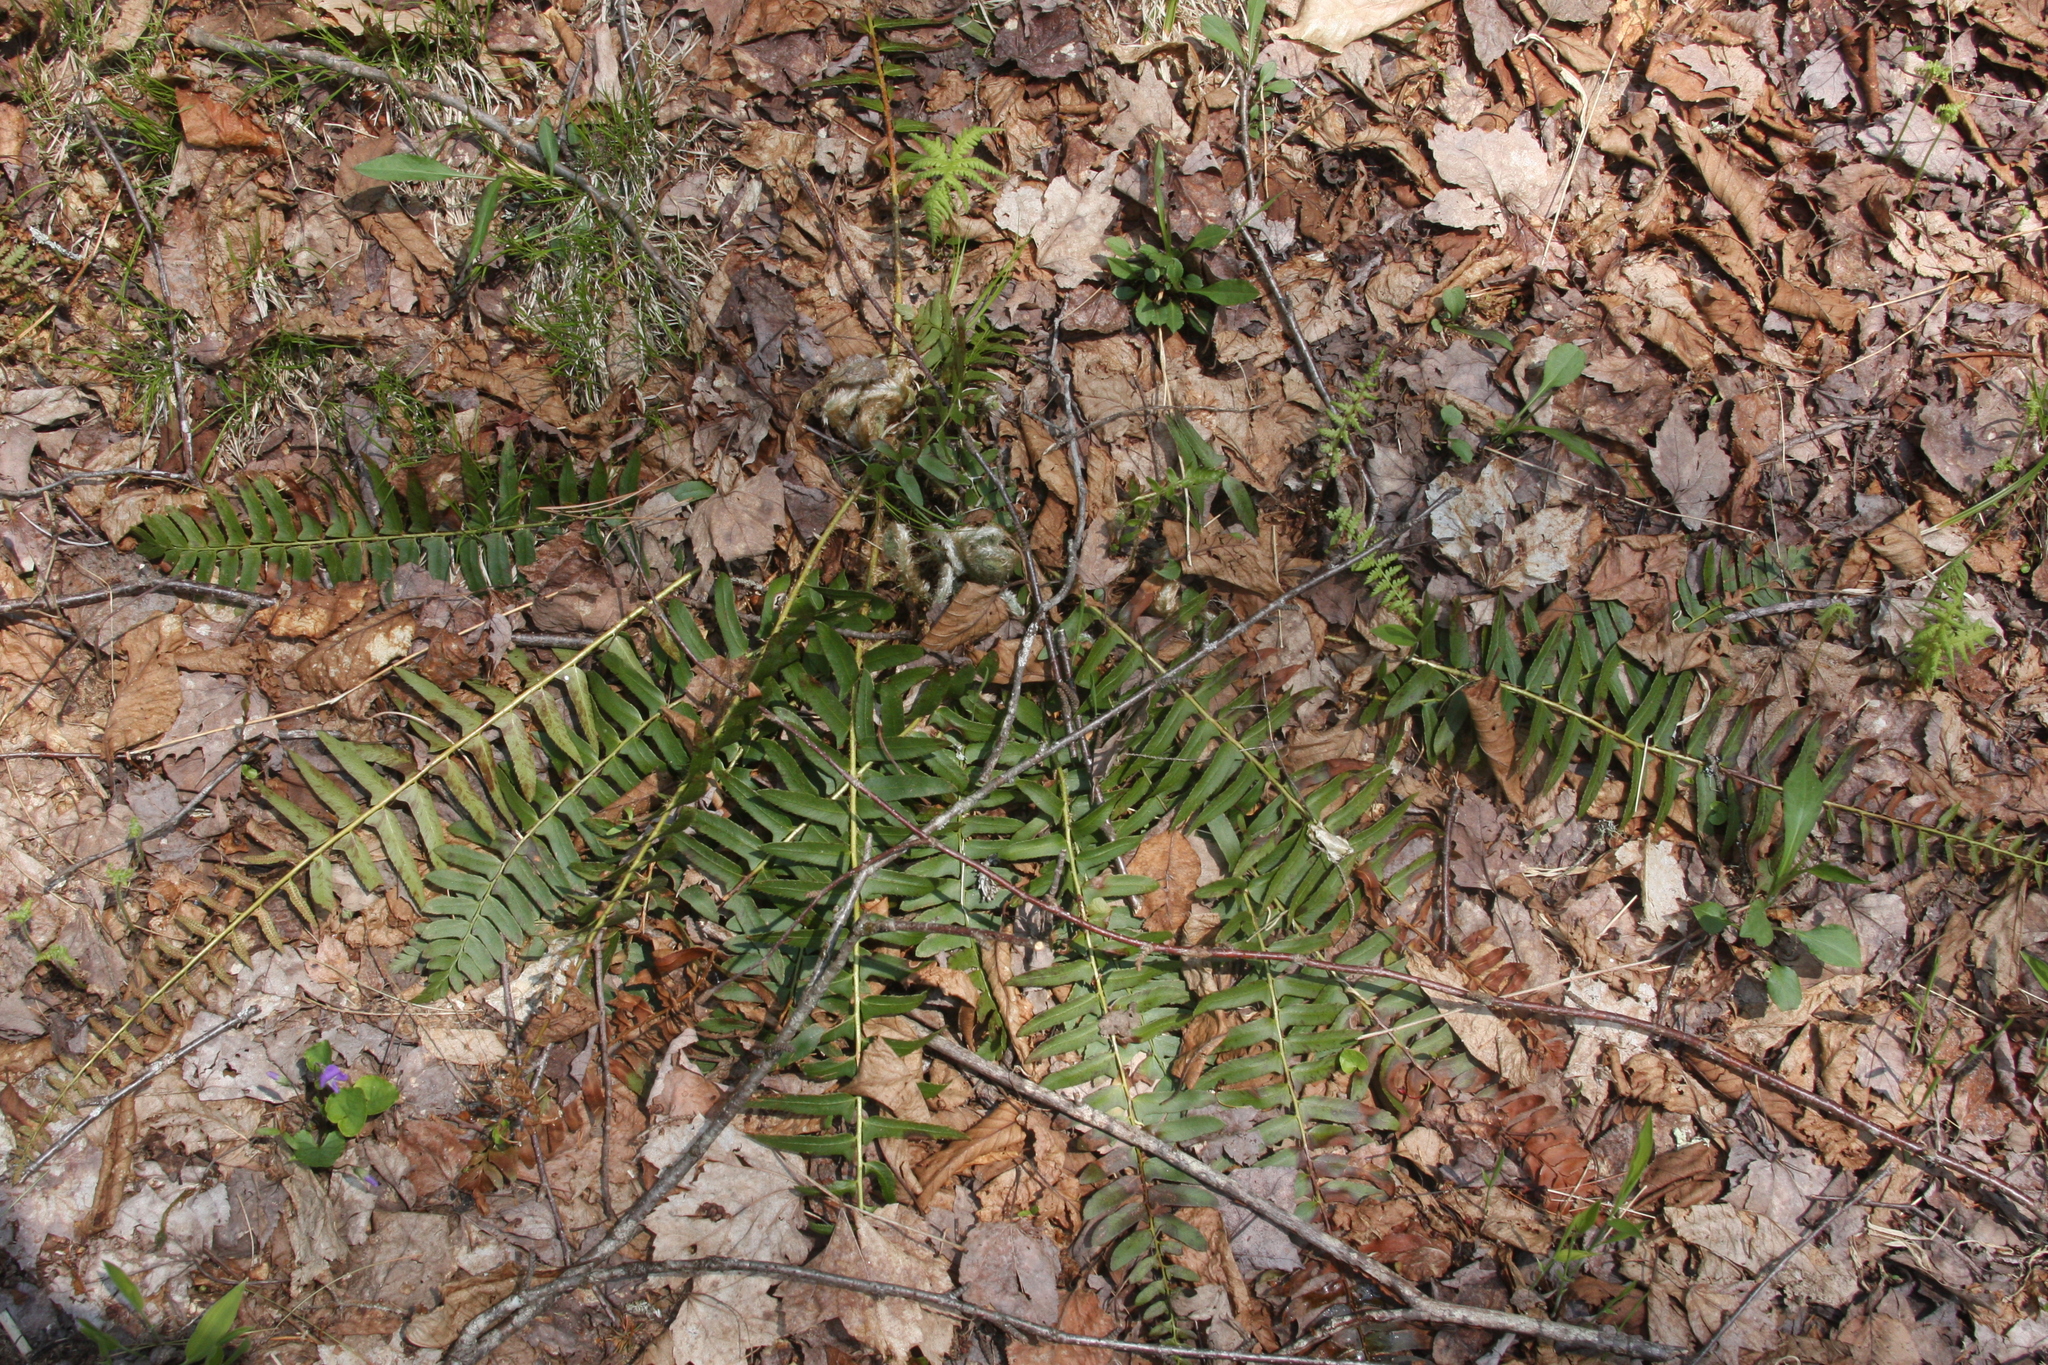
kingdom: Plantae
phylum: Tracheophyta
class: Polypodiopsida
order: Polypodiales
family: Dryopteridaceae
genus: Polystichum
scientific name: Polystichum acrostichoides
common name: Christmas fern
